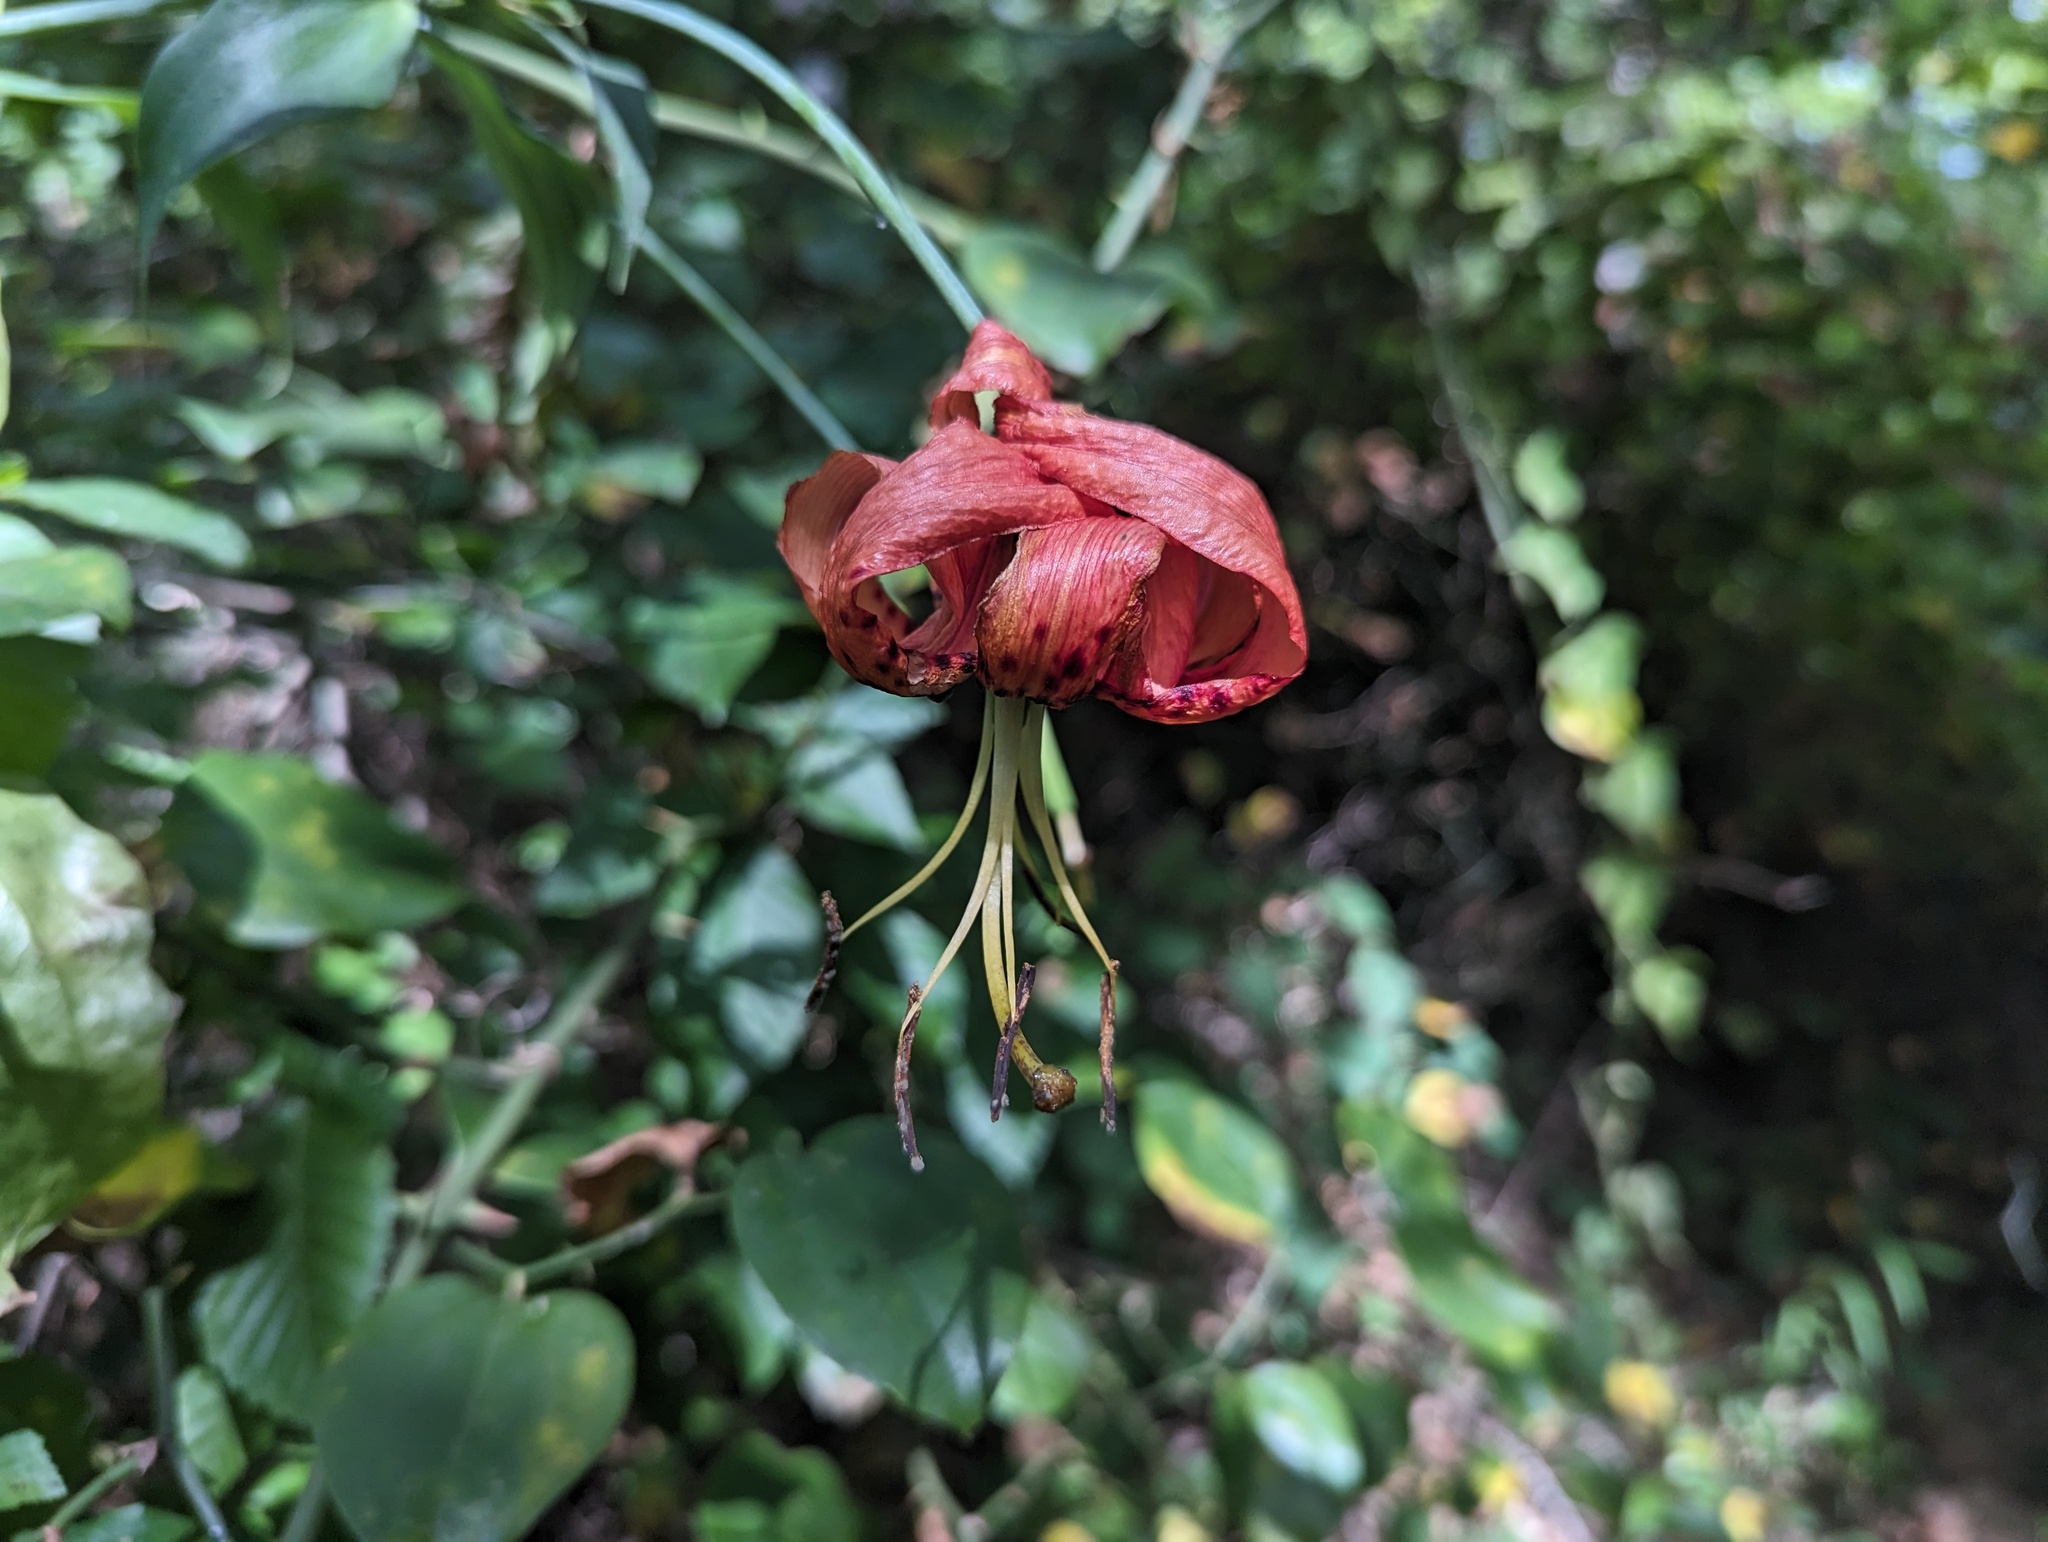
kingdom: Plantae
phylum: Tracheophyta
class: Liliopsida
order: Liliales
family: Liliaceae
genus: Lilium
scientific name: Lilium superbum
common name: American turk's-cap lily
